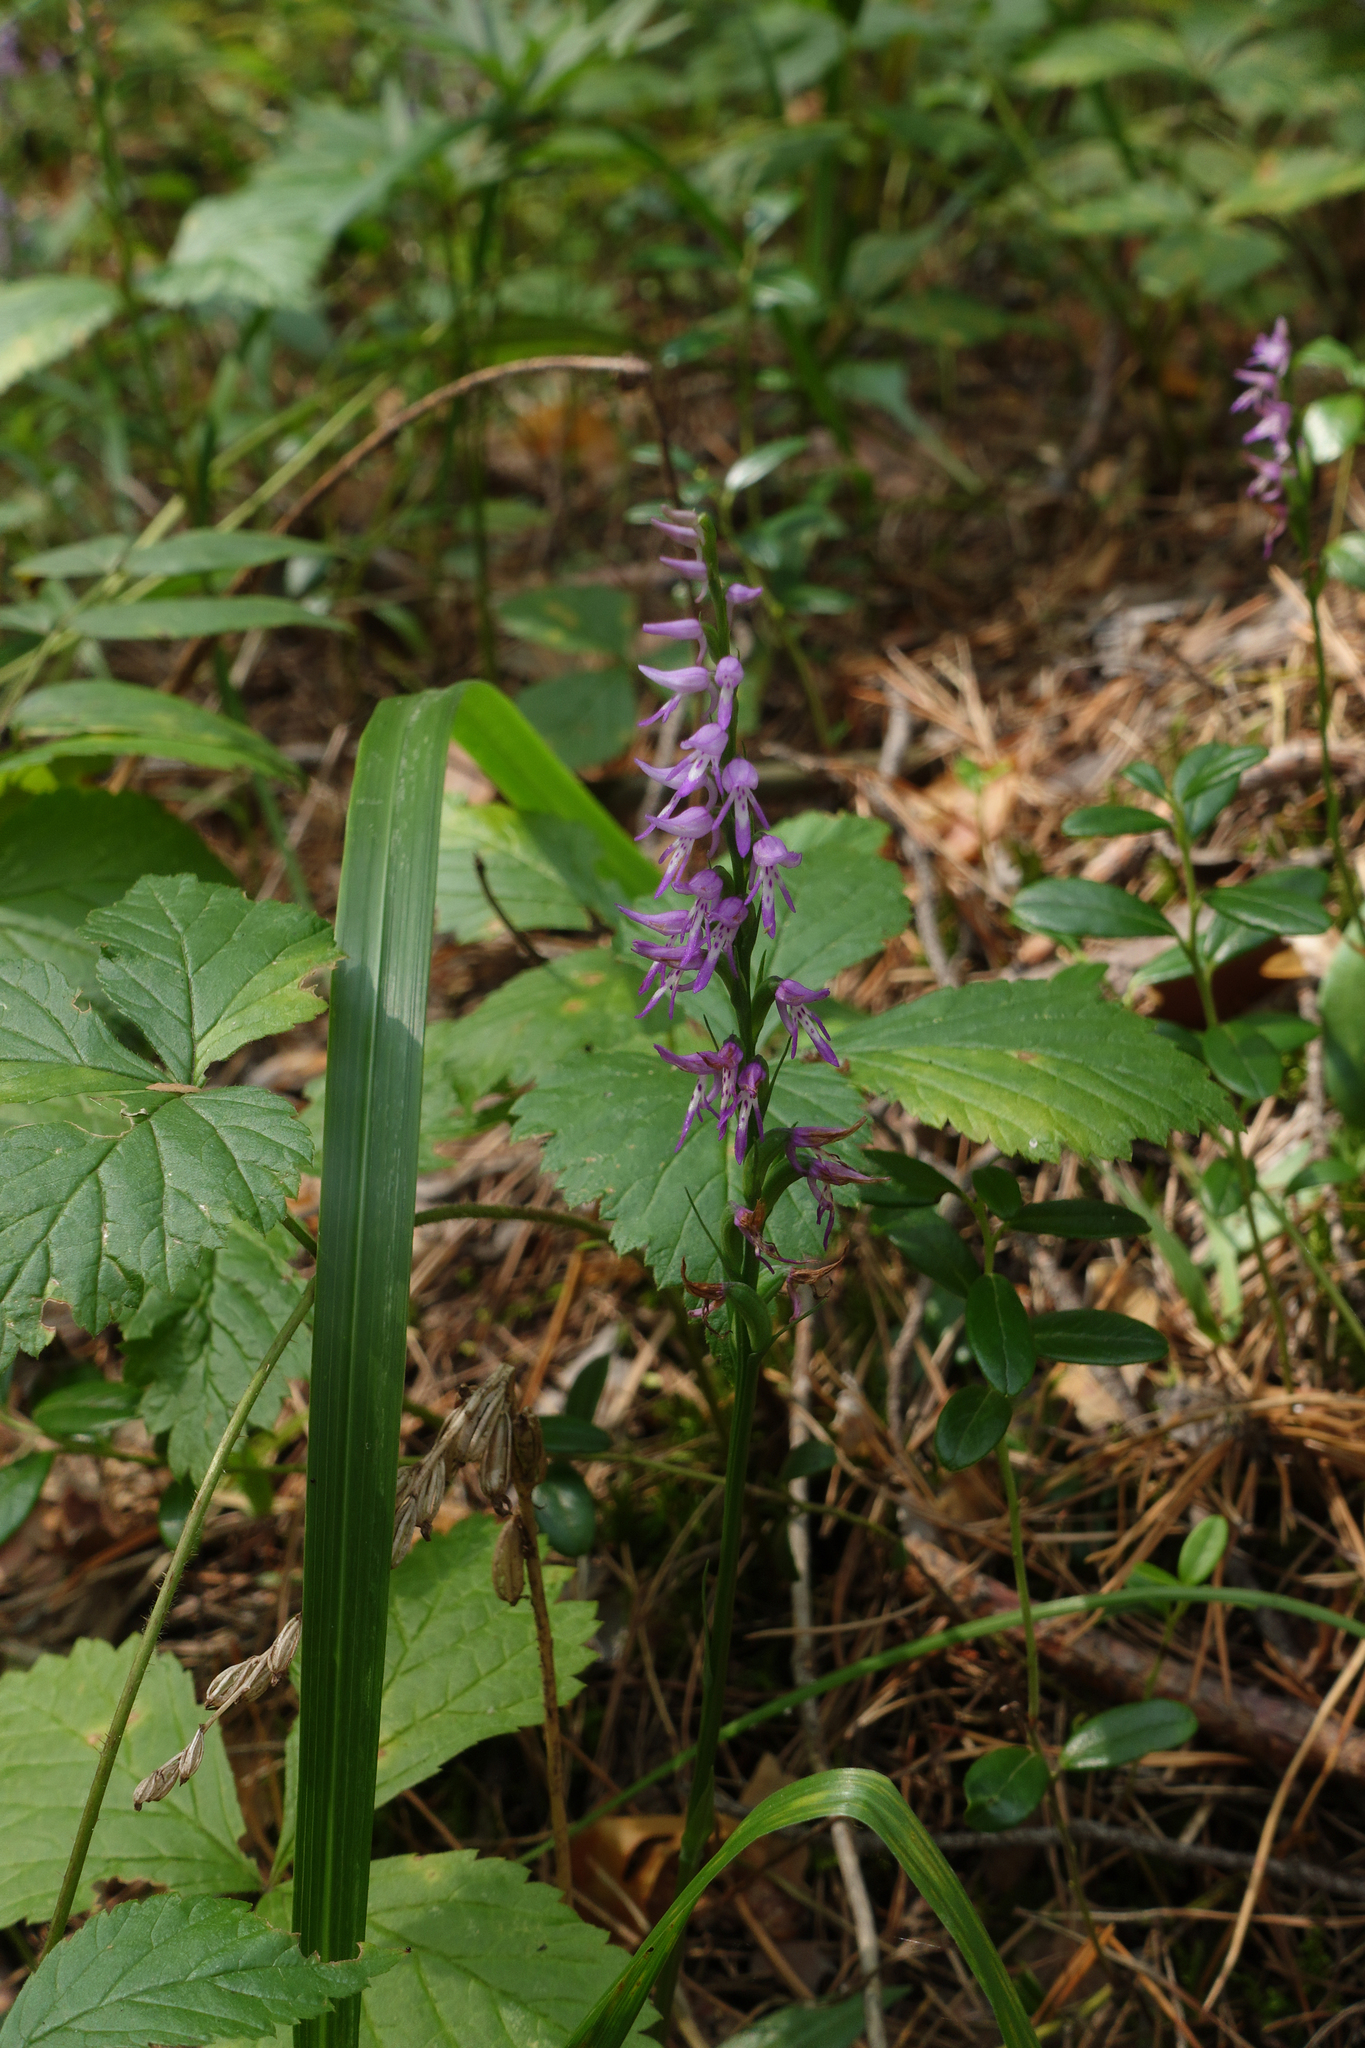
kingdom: Plantae
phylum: Tracheophyta
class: Liliopsida
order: Asparagales
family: Orchidaceae
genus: Hemipilia
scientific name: Hemipilia cucullata
